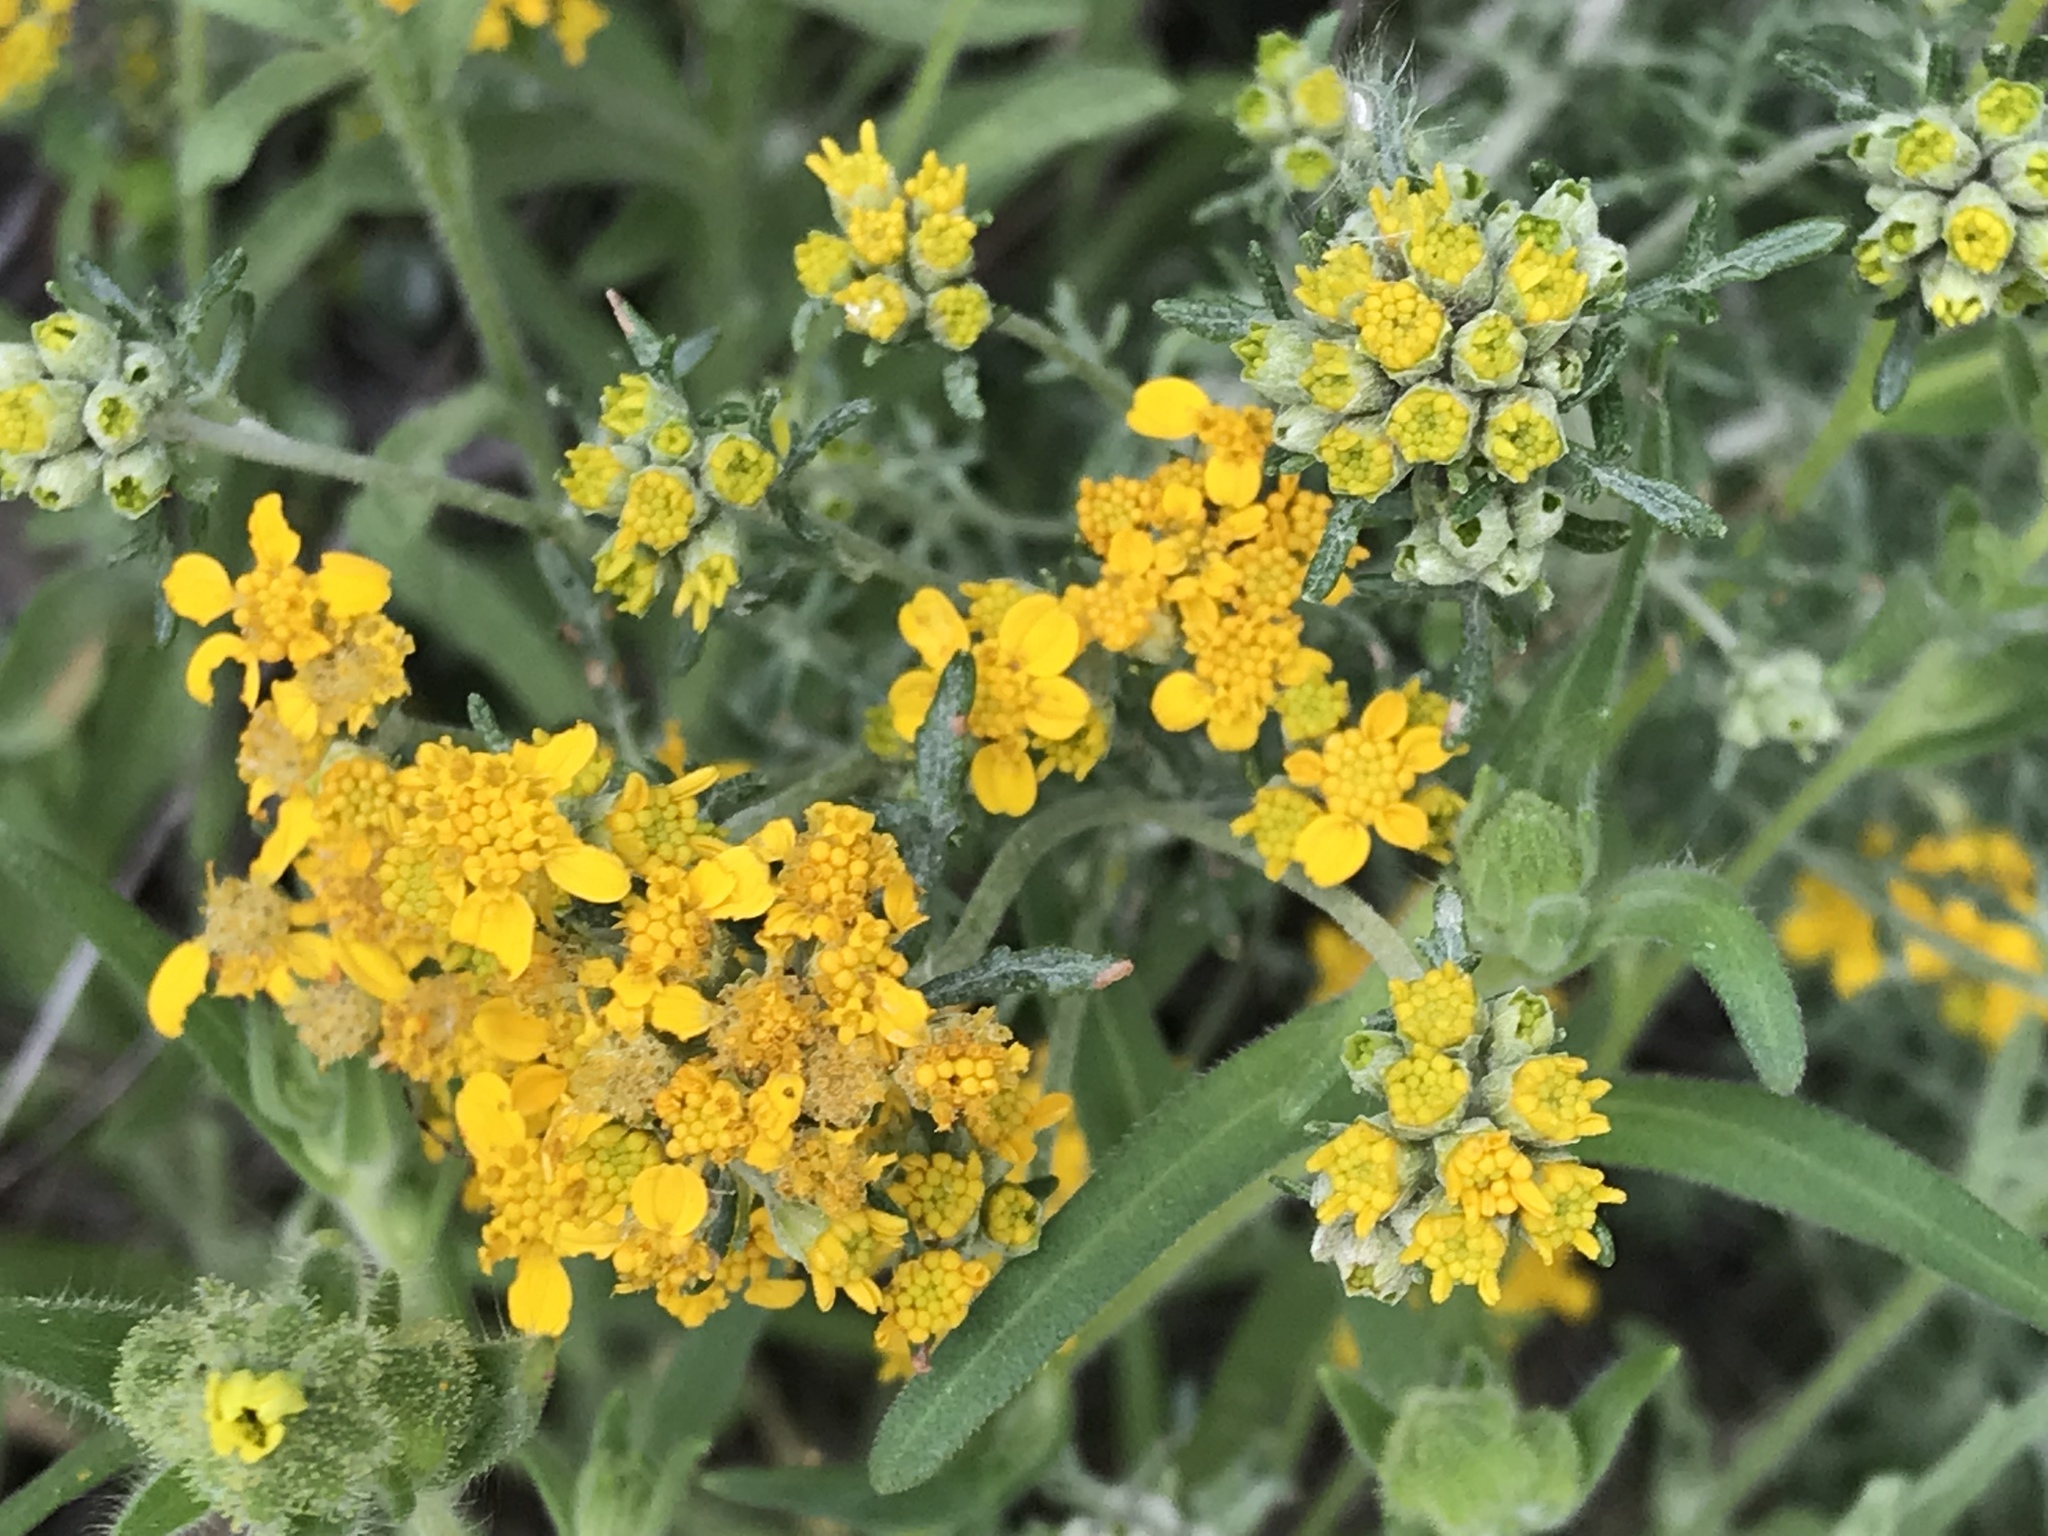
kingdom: Plantae
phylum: Tracheophyta
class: Magnoliopsida
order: Asterales
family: Asteraceae
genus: Eriophyllum
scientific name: Eriophyllum confertiflorum
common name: Golden-yarrow
